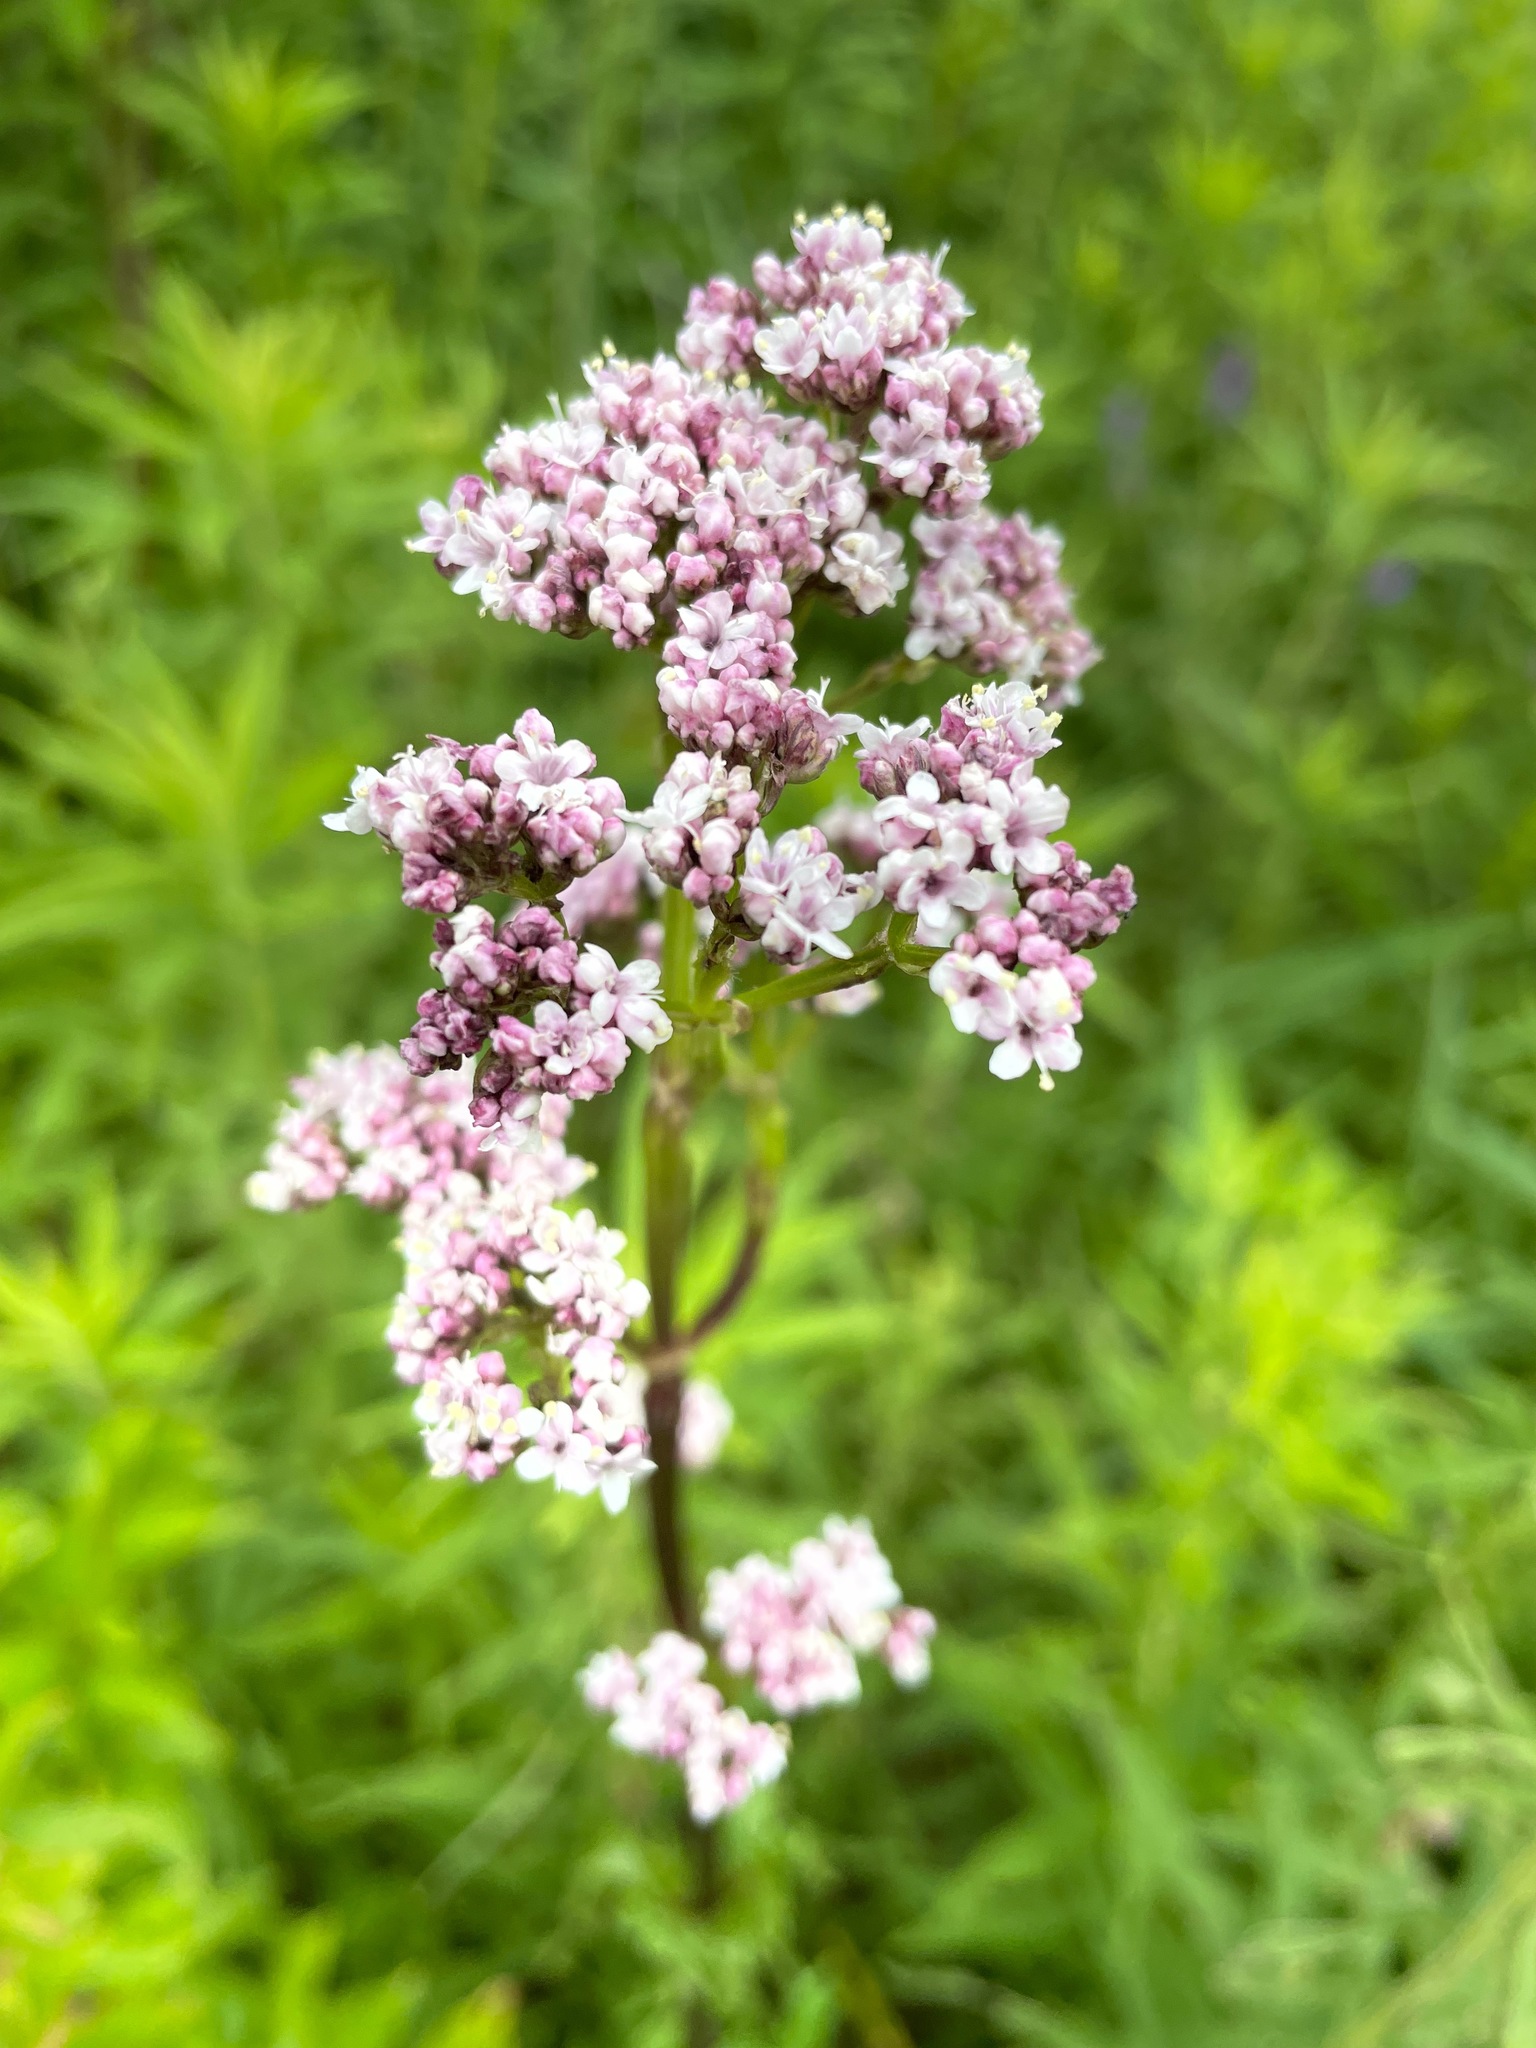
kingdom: Plantae
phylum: Tracheophyta
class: Magnoliopsida
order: Dipsacales
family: Caprifoliaceae
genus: Valeriana
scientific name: Valeriana officinalis
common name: Common valerian
